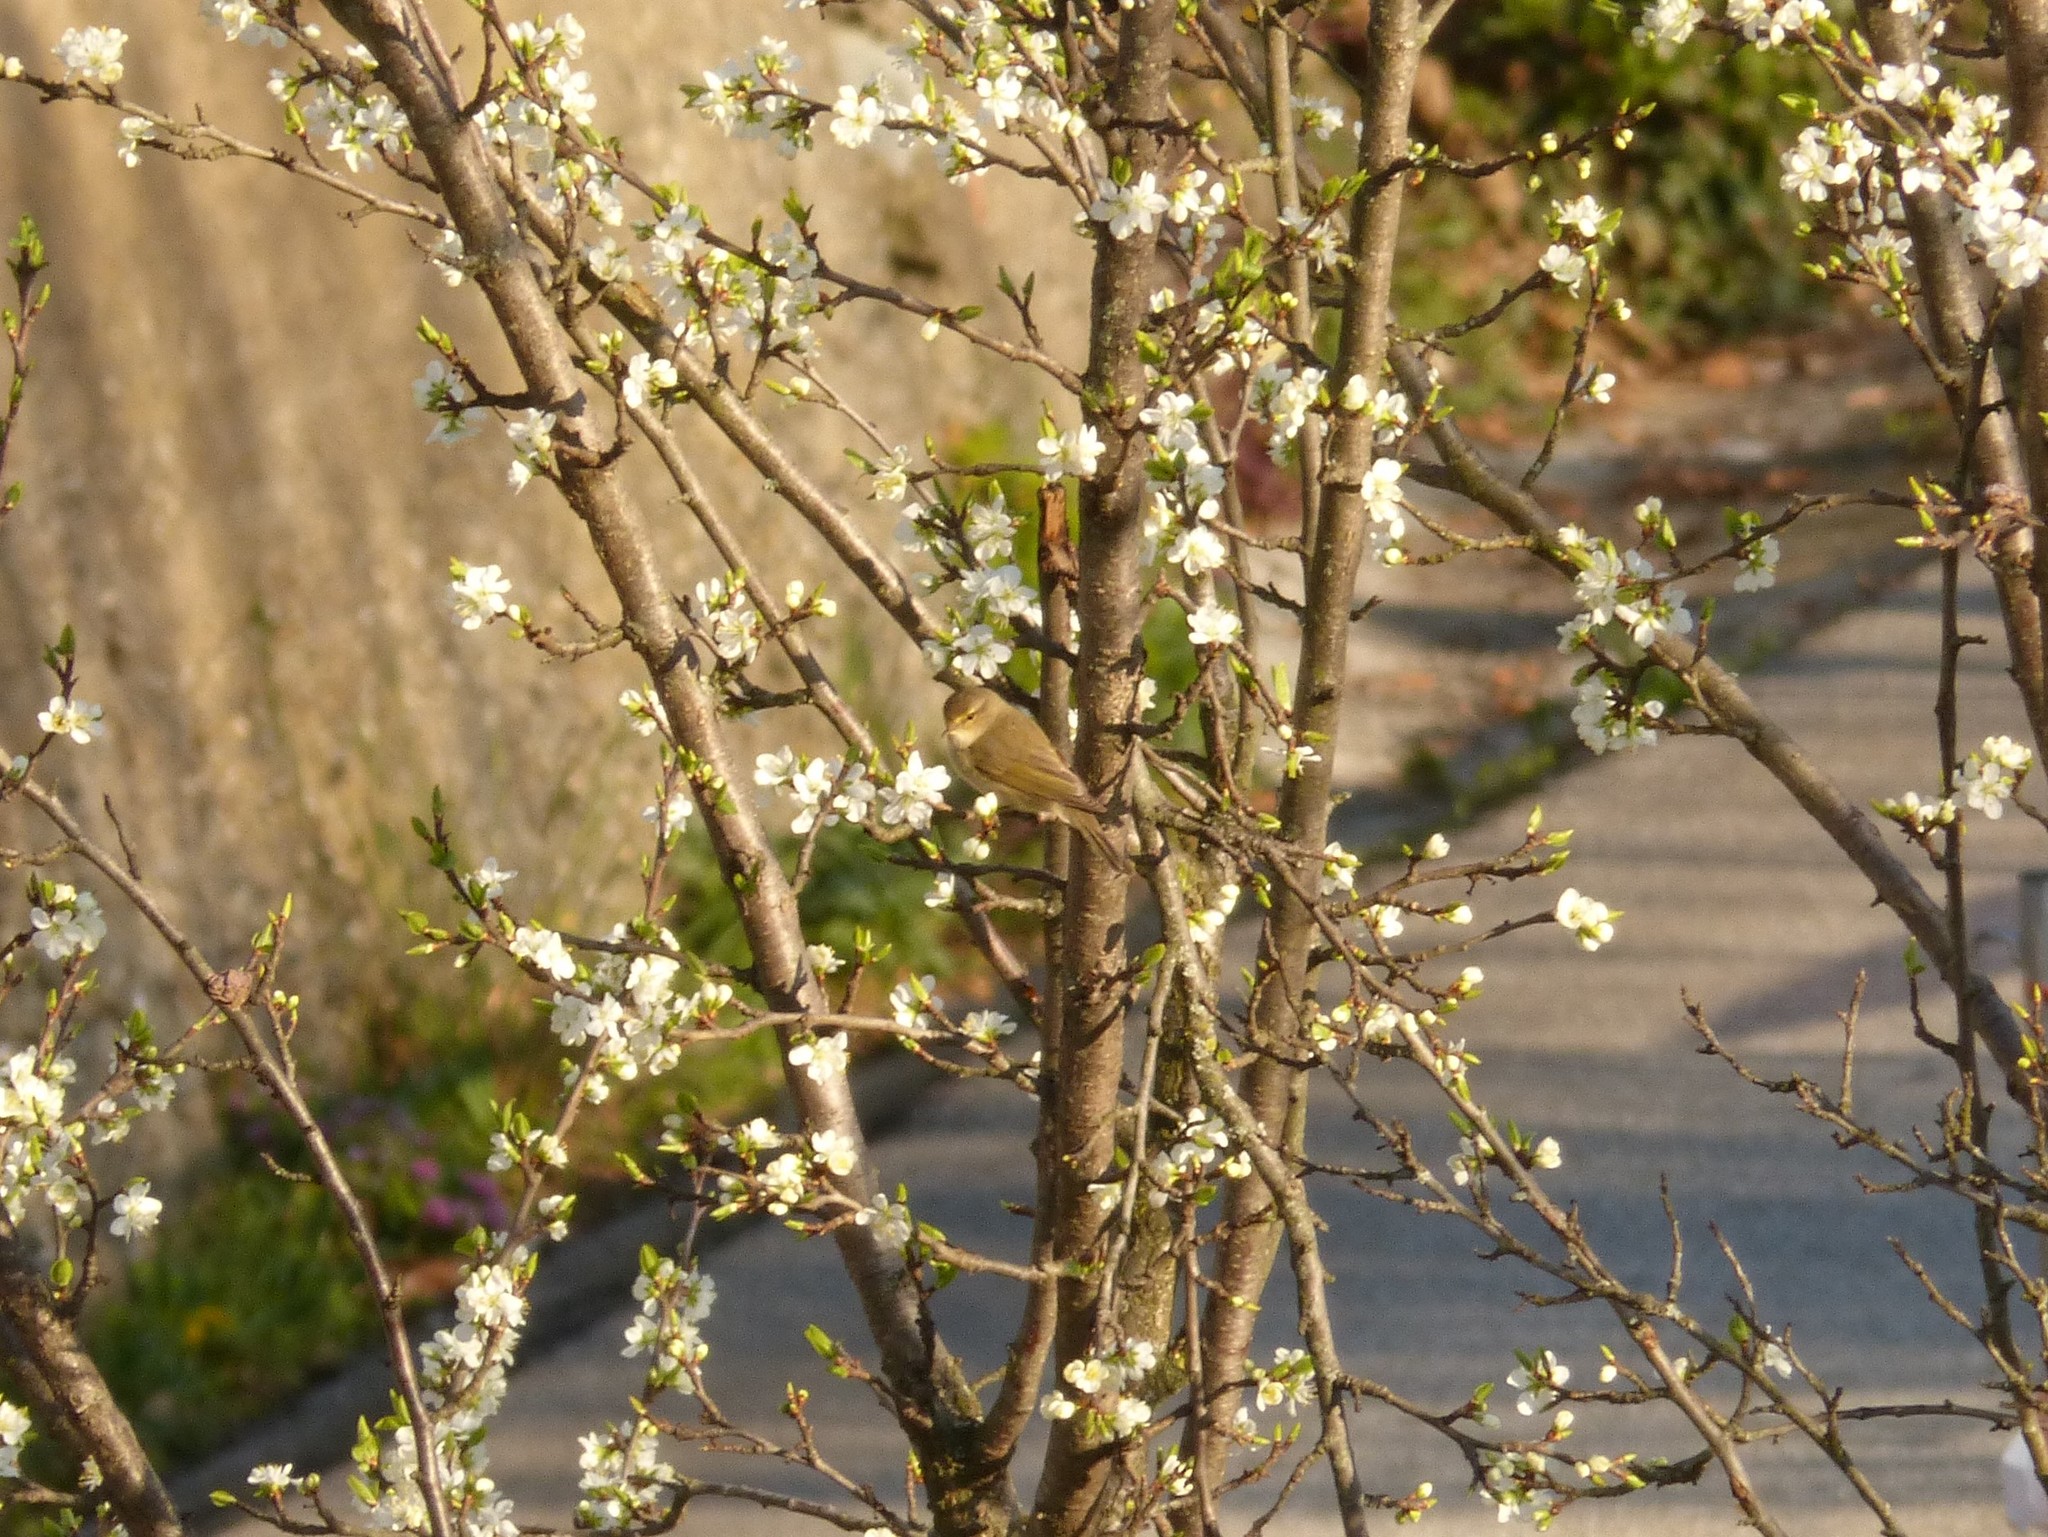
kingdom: Animalia
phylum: Chordata
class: Aves
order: Passeriformes
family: Phylloscopidae
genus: Phylloscopus
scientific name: Phylloscopus collybita
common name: Common chiffchaff
